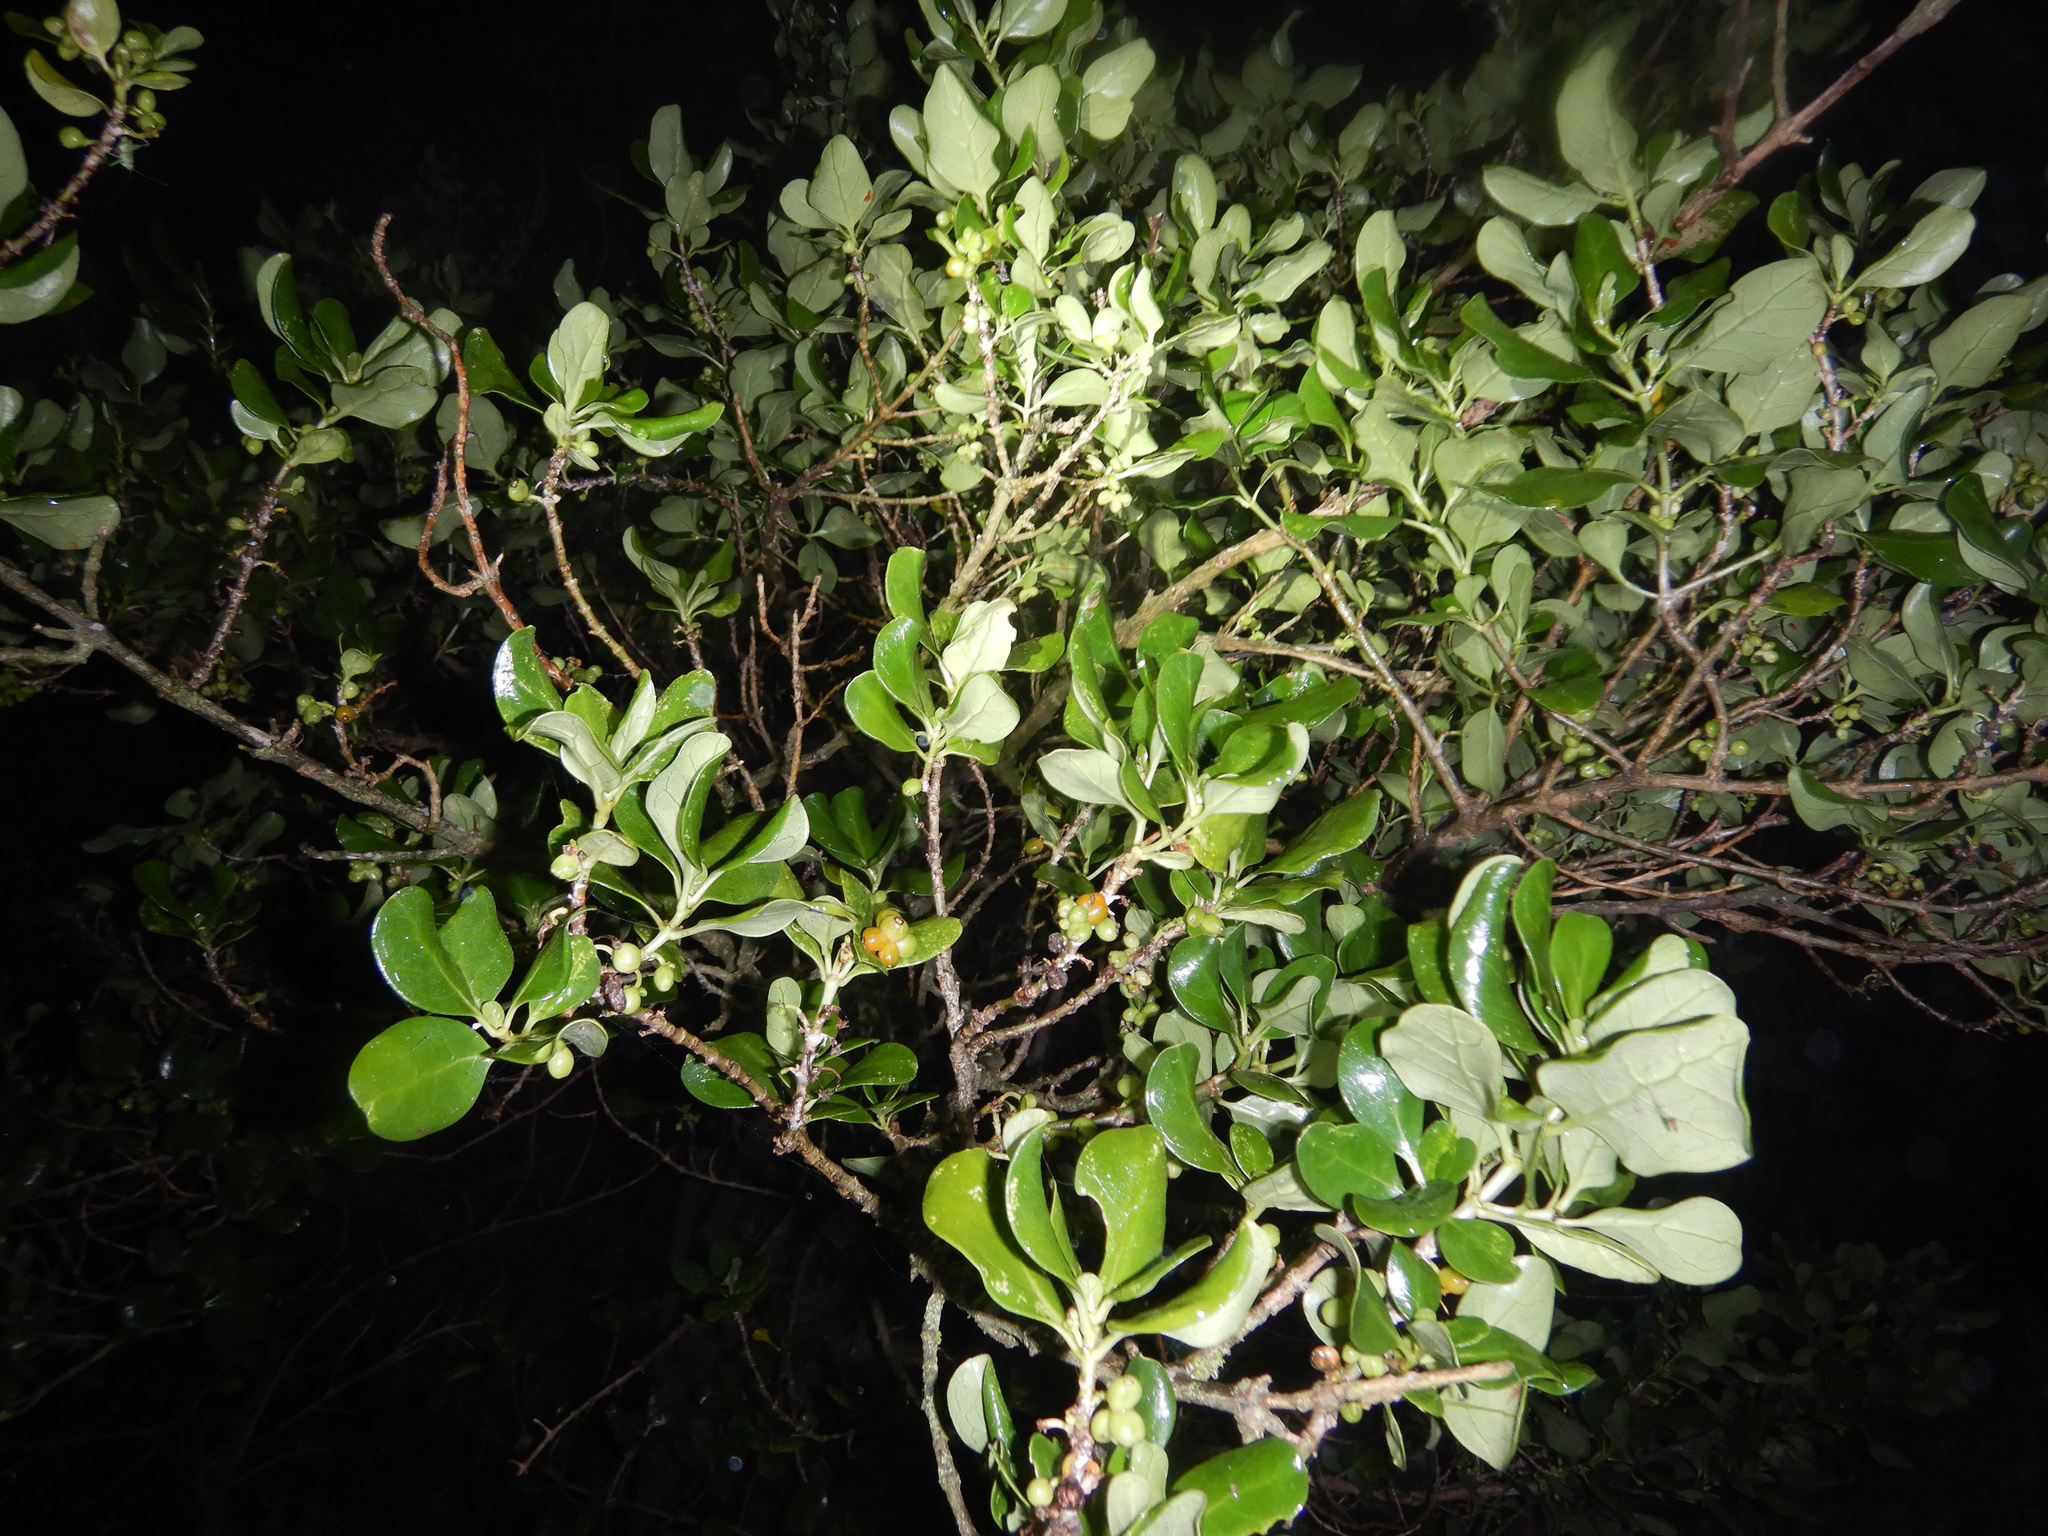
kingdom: Plantae
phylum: Tracheophyta
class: Magnoliopsida
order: Gentianales
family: Rubiaceae
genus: Coprosma
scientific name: Coprosma repens
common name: Tree bedstraw
